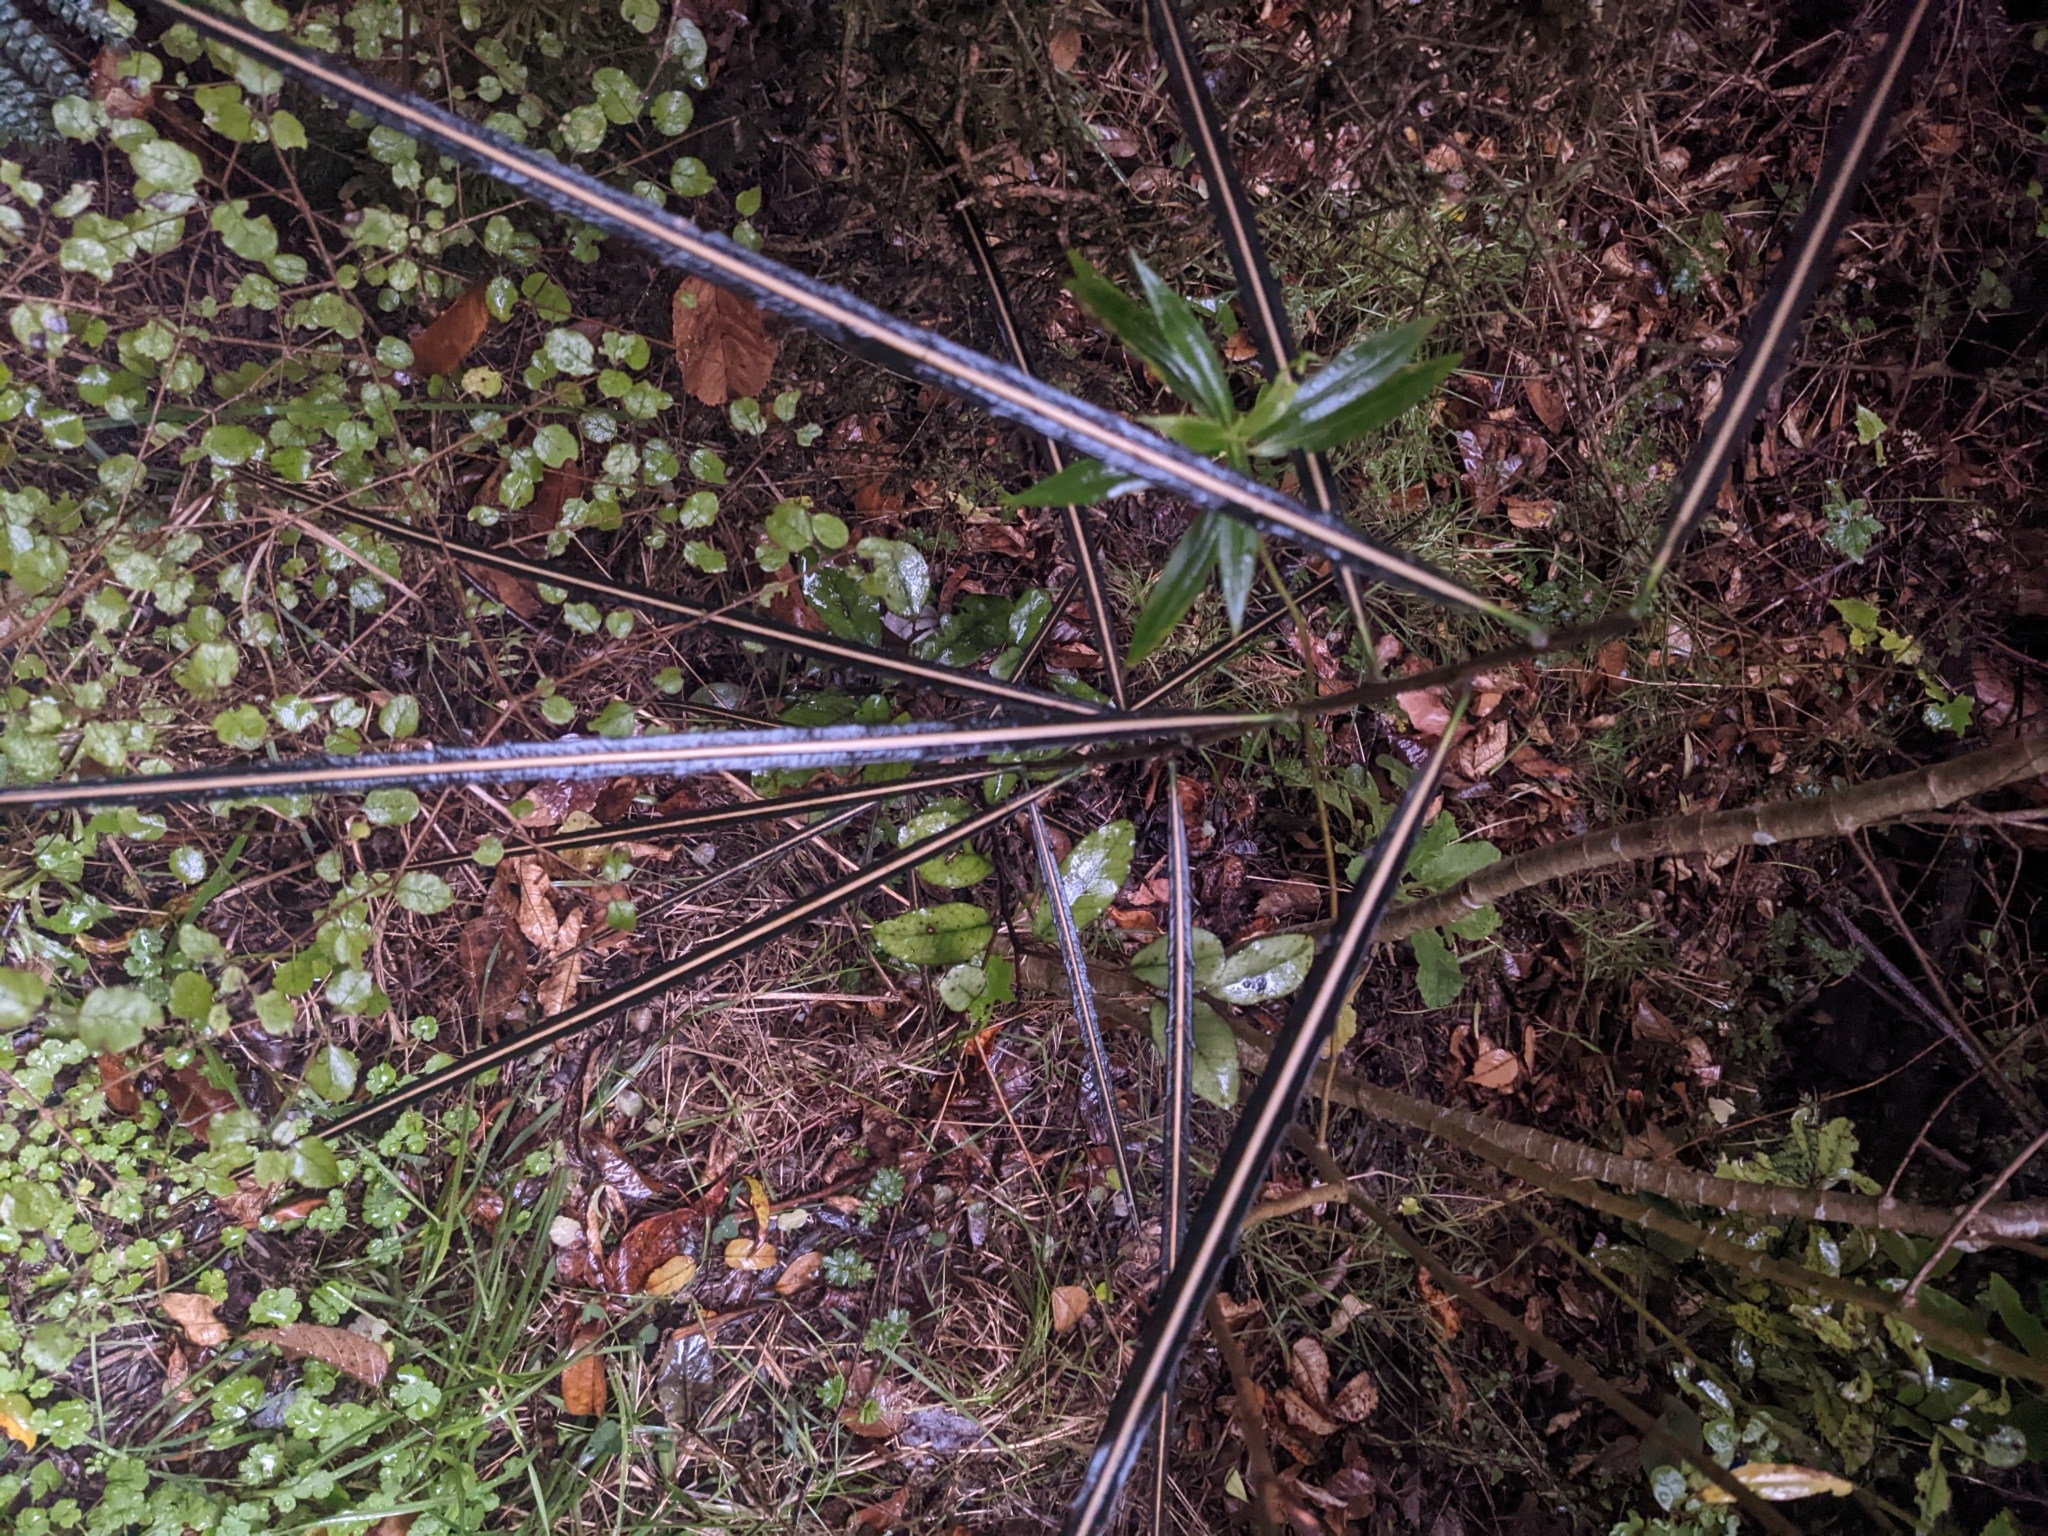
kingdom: Plantae
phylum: Tracheophyta
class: Magnoliopsida
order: Apiales
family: Araliaceae
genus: Pseudopanax
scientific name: Pseudopanax crassifolius
